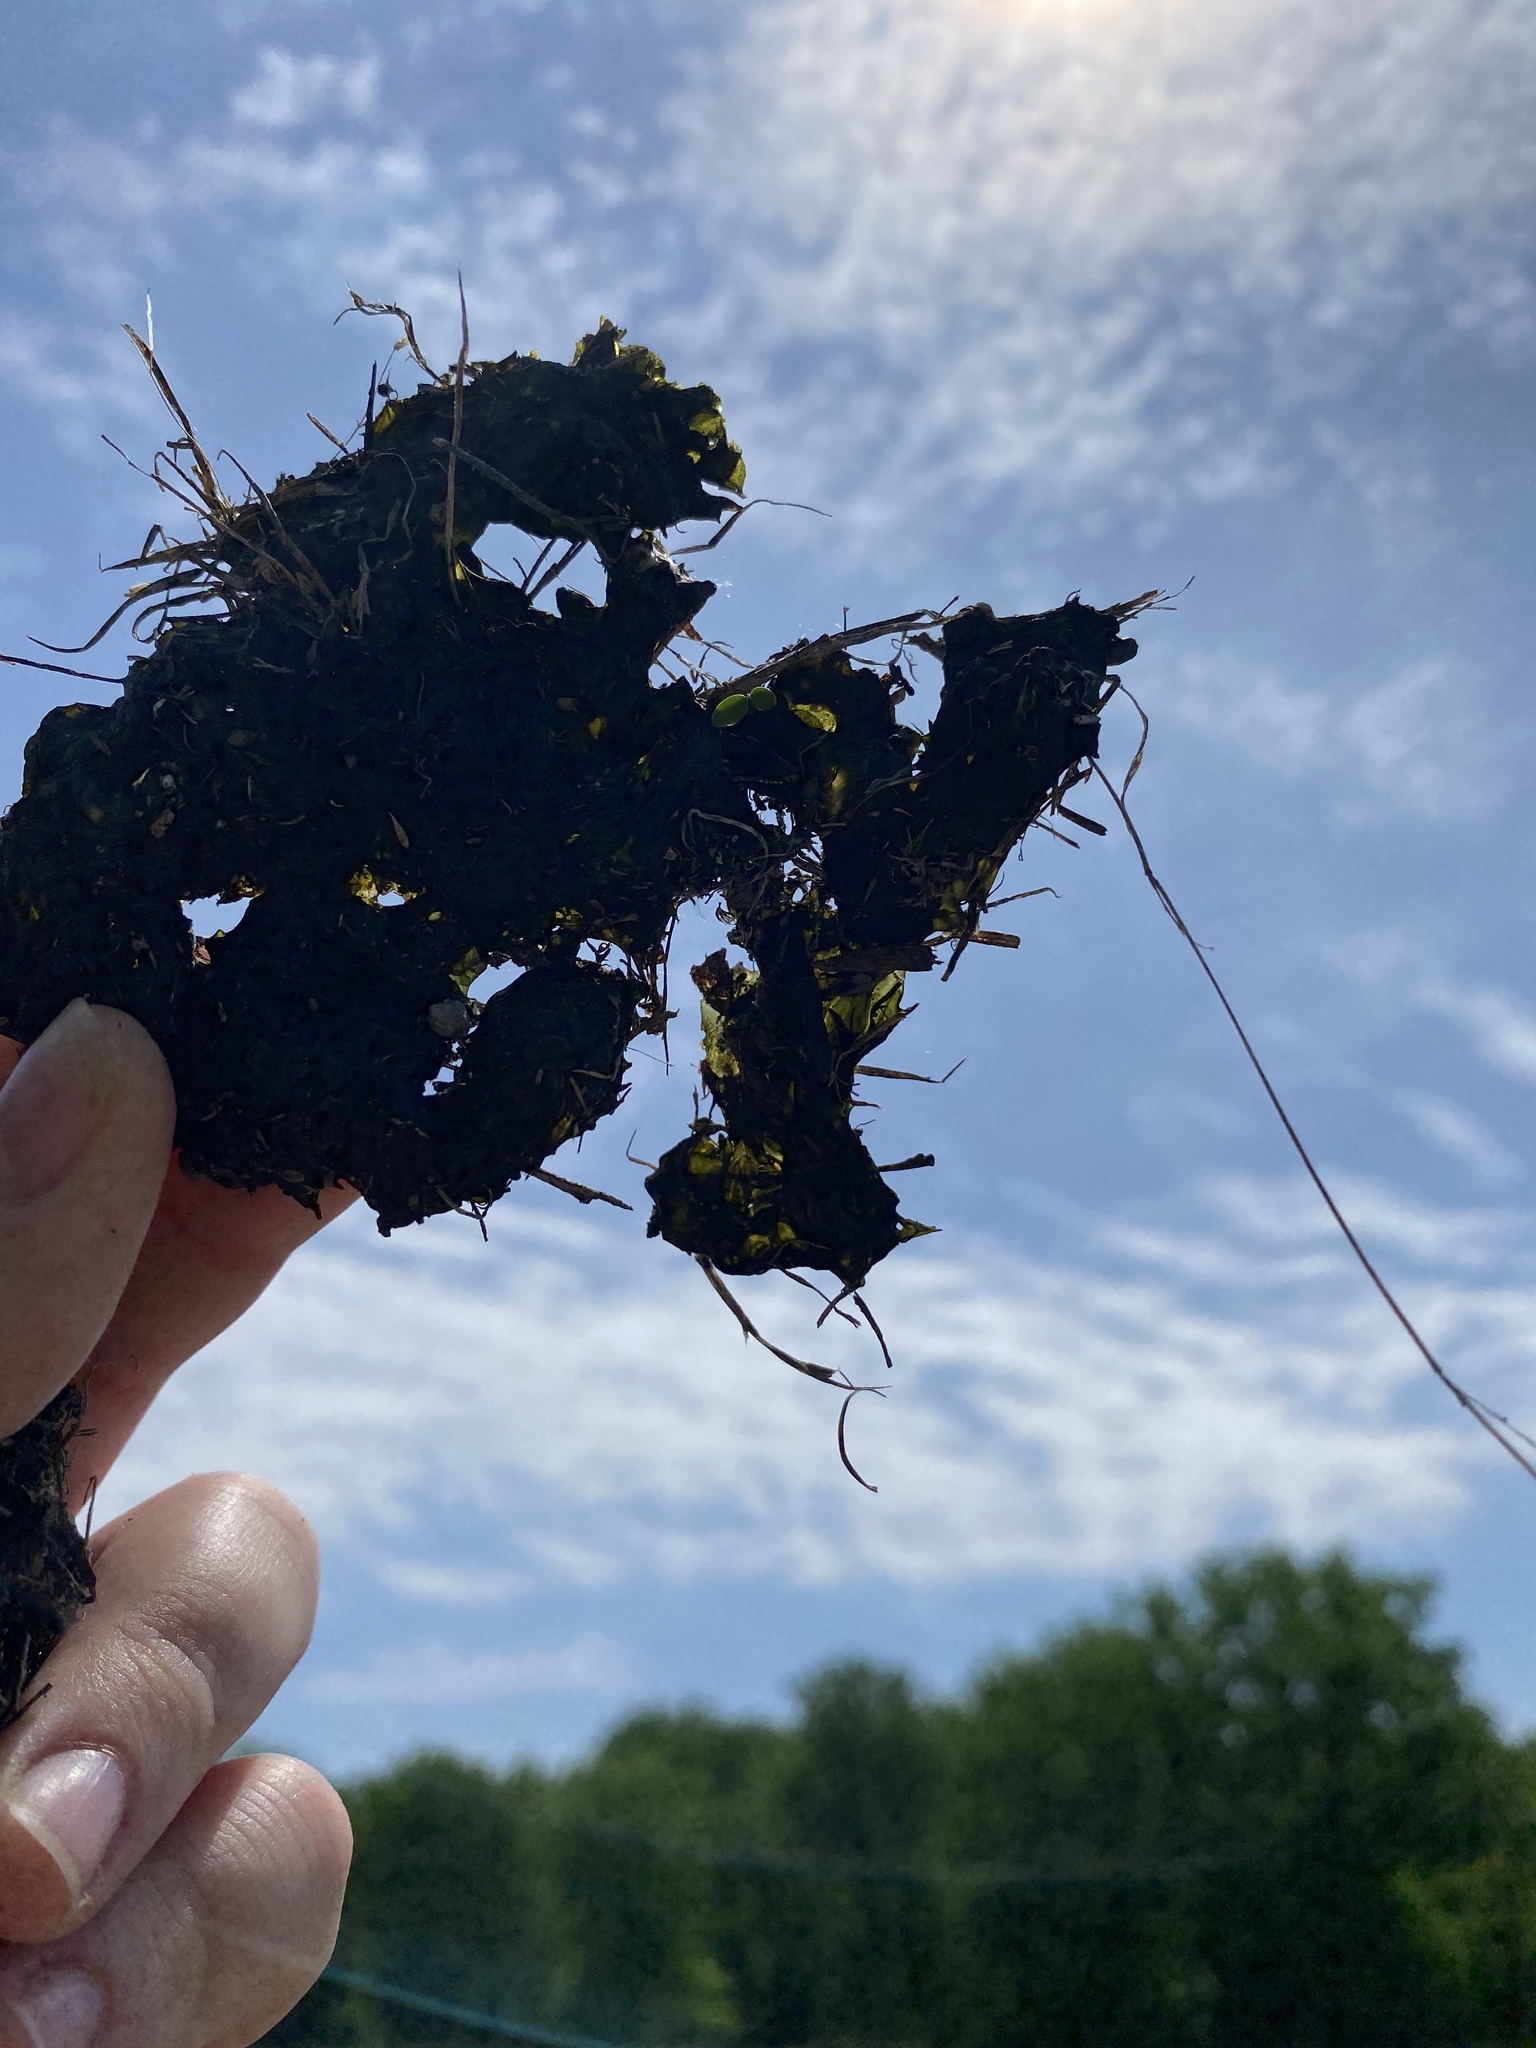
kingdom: Bacteria
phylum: Cyanobacteria
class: Cyanobacteriia
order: Cyanobacteriales
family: Nostocaceae
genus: Nostoc
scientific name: Nostoc commune
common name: Star jelly
